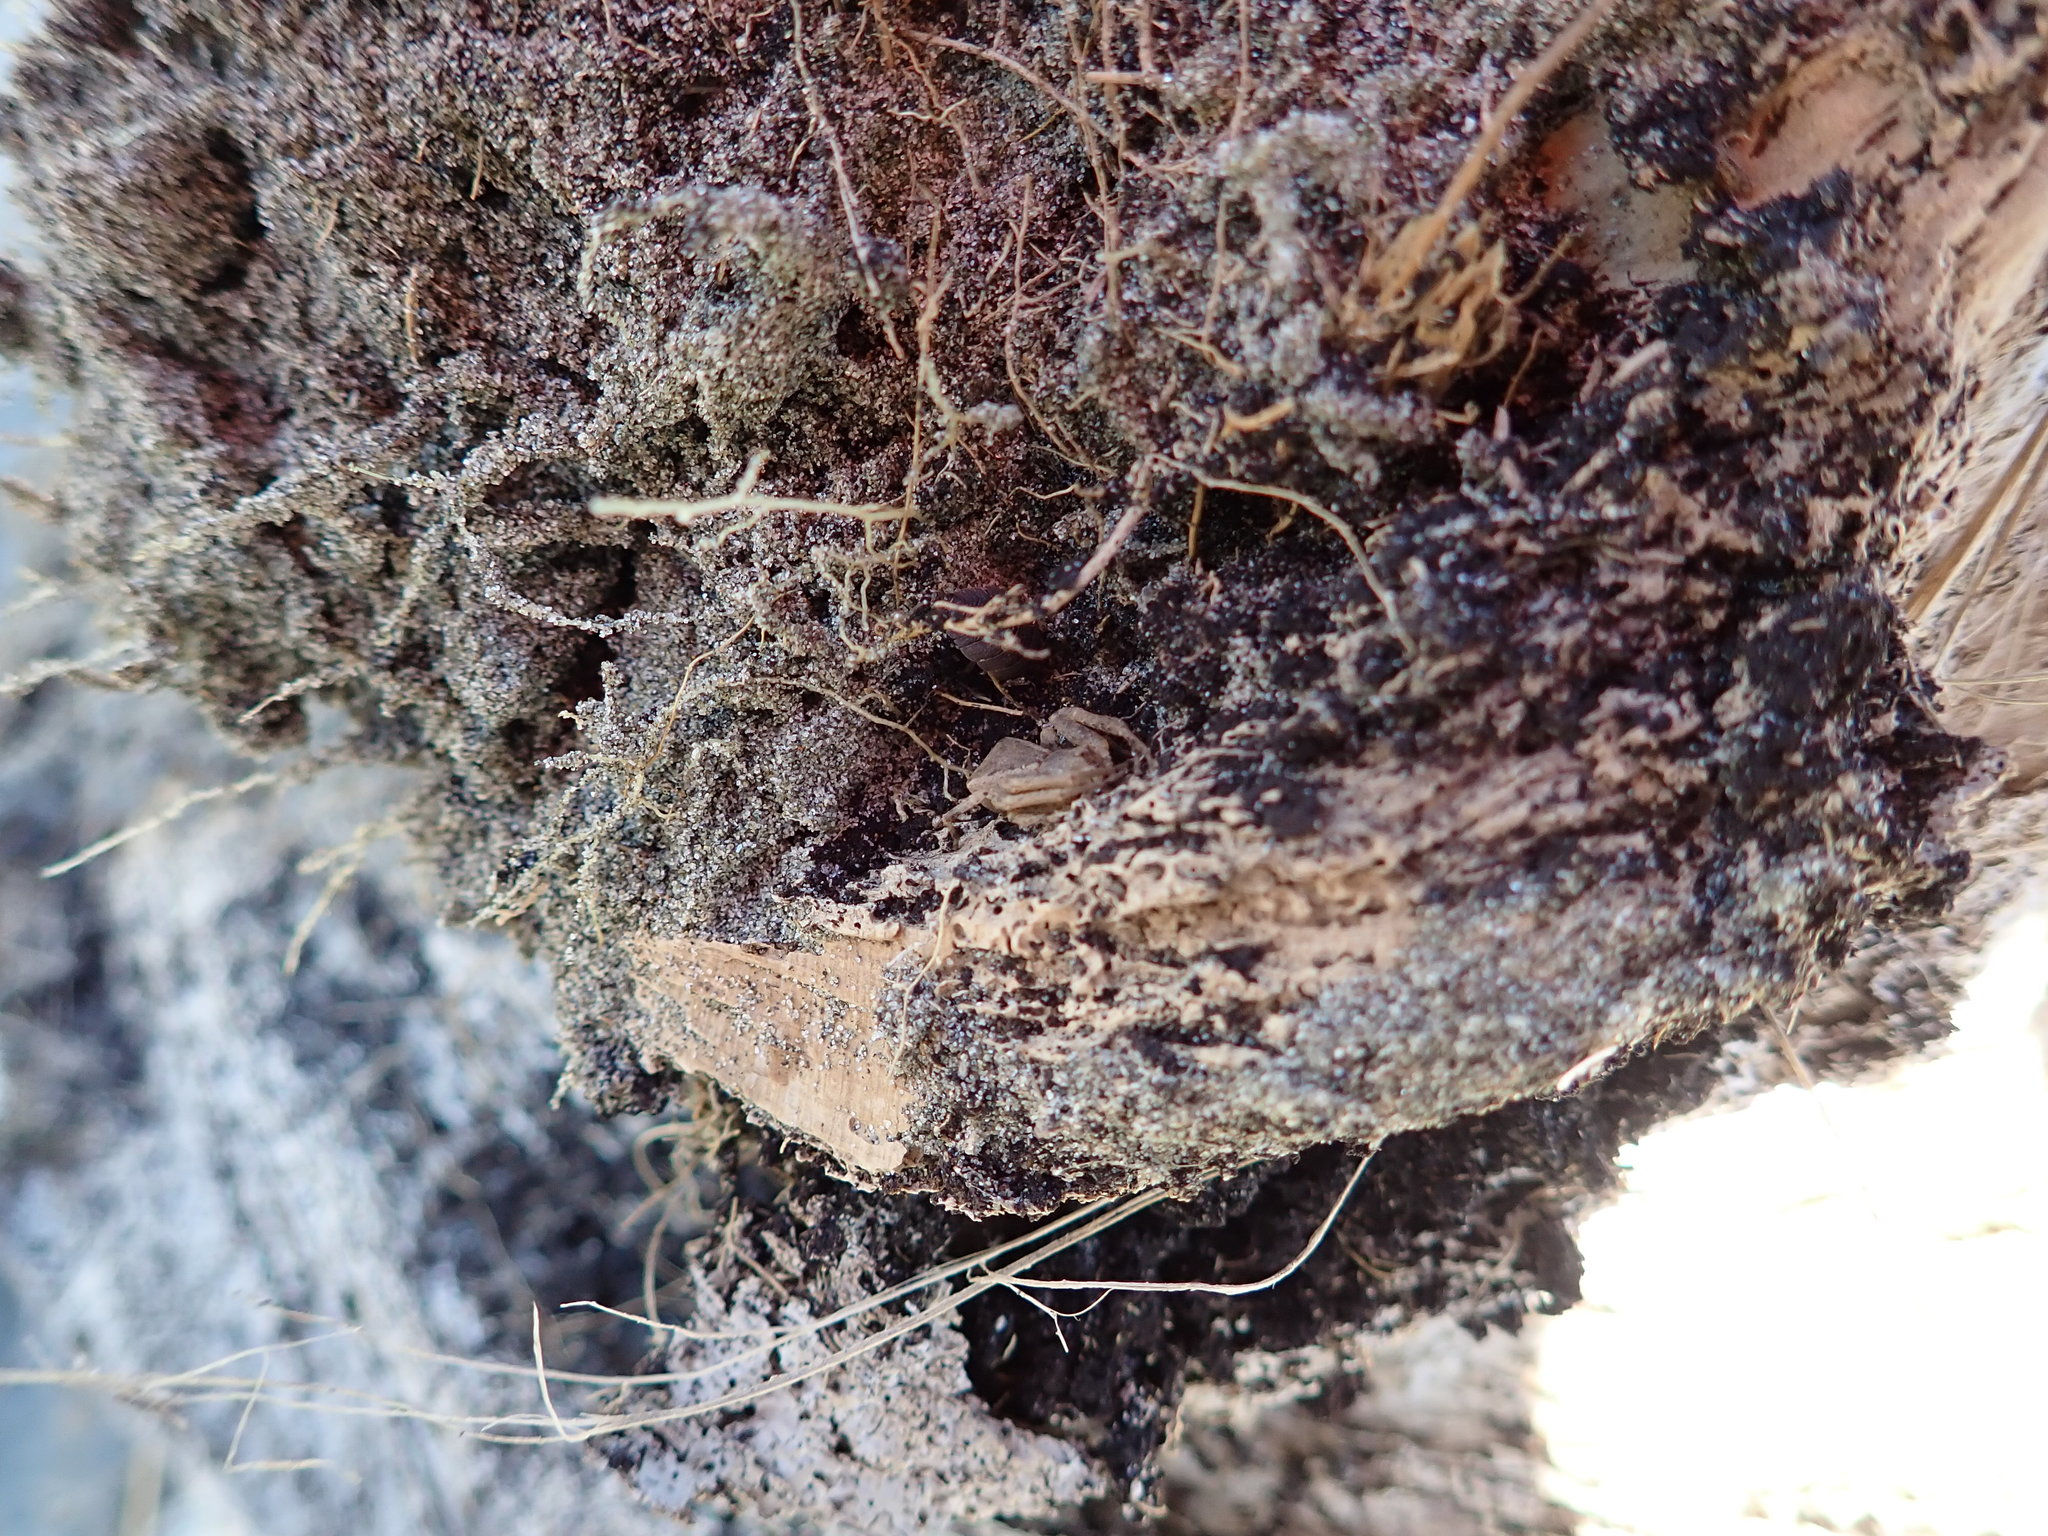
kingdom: Animalia
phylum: Arthropoda
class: Arachnida
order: Araneae
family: Thomisidae
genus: Sidymella
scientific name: Sidymella trapezia
